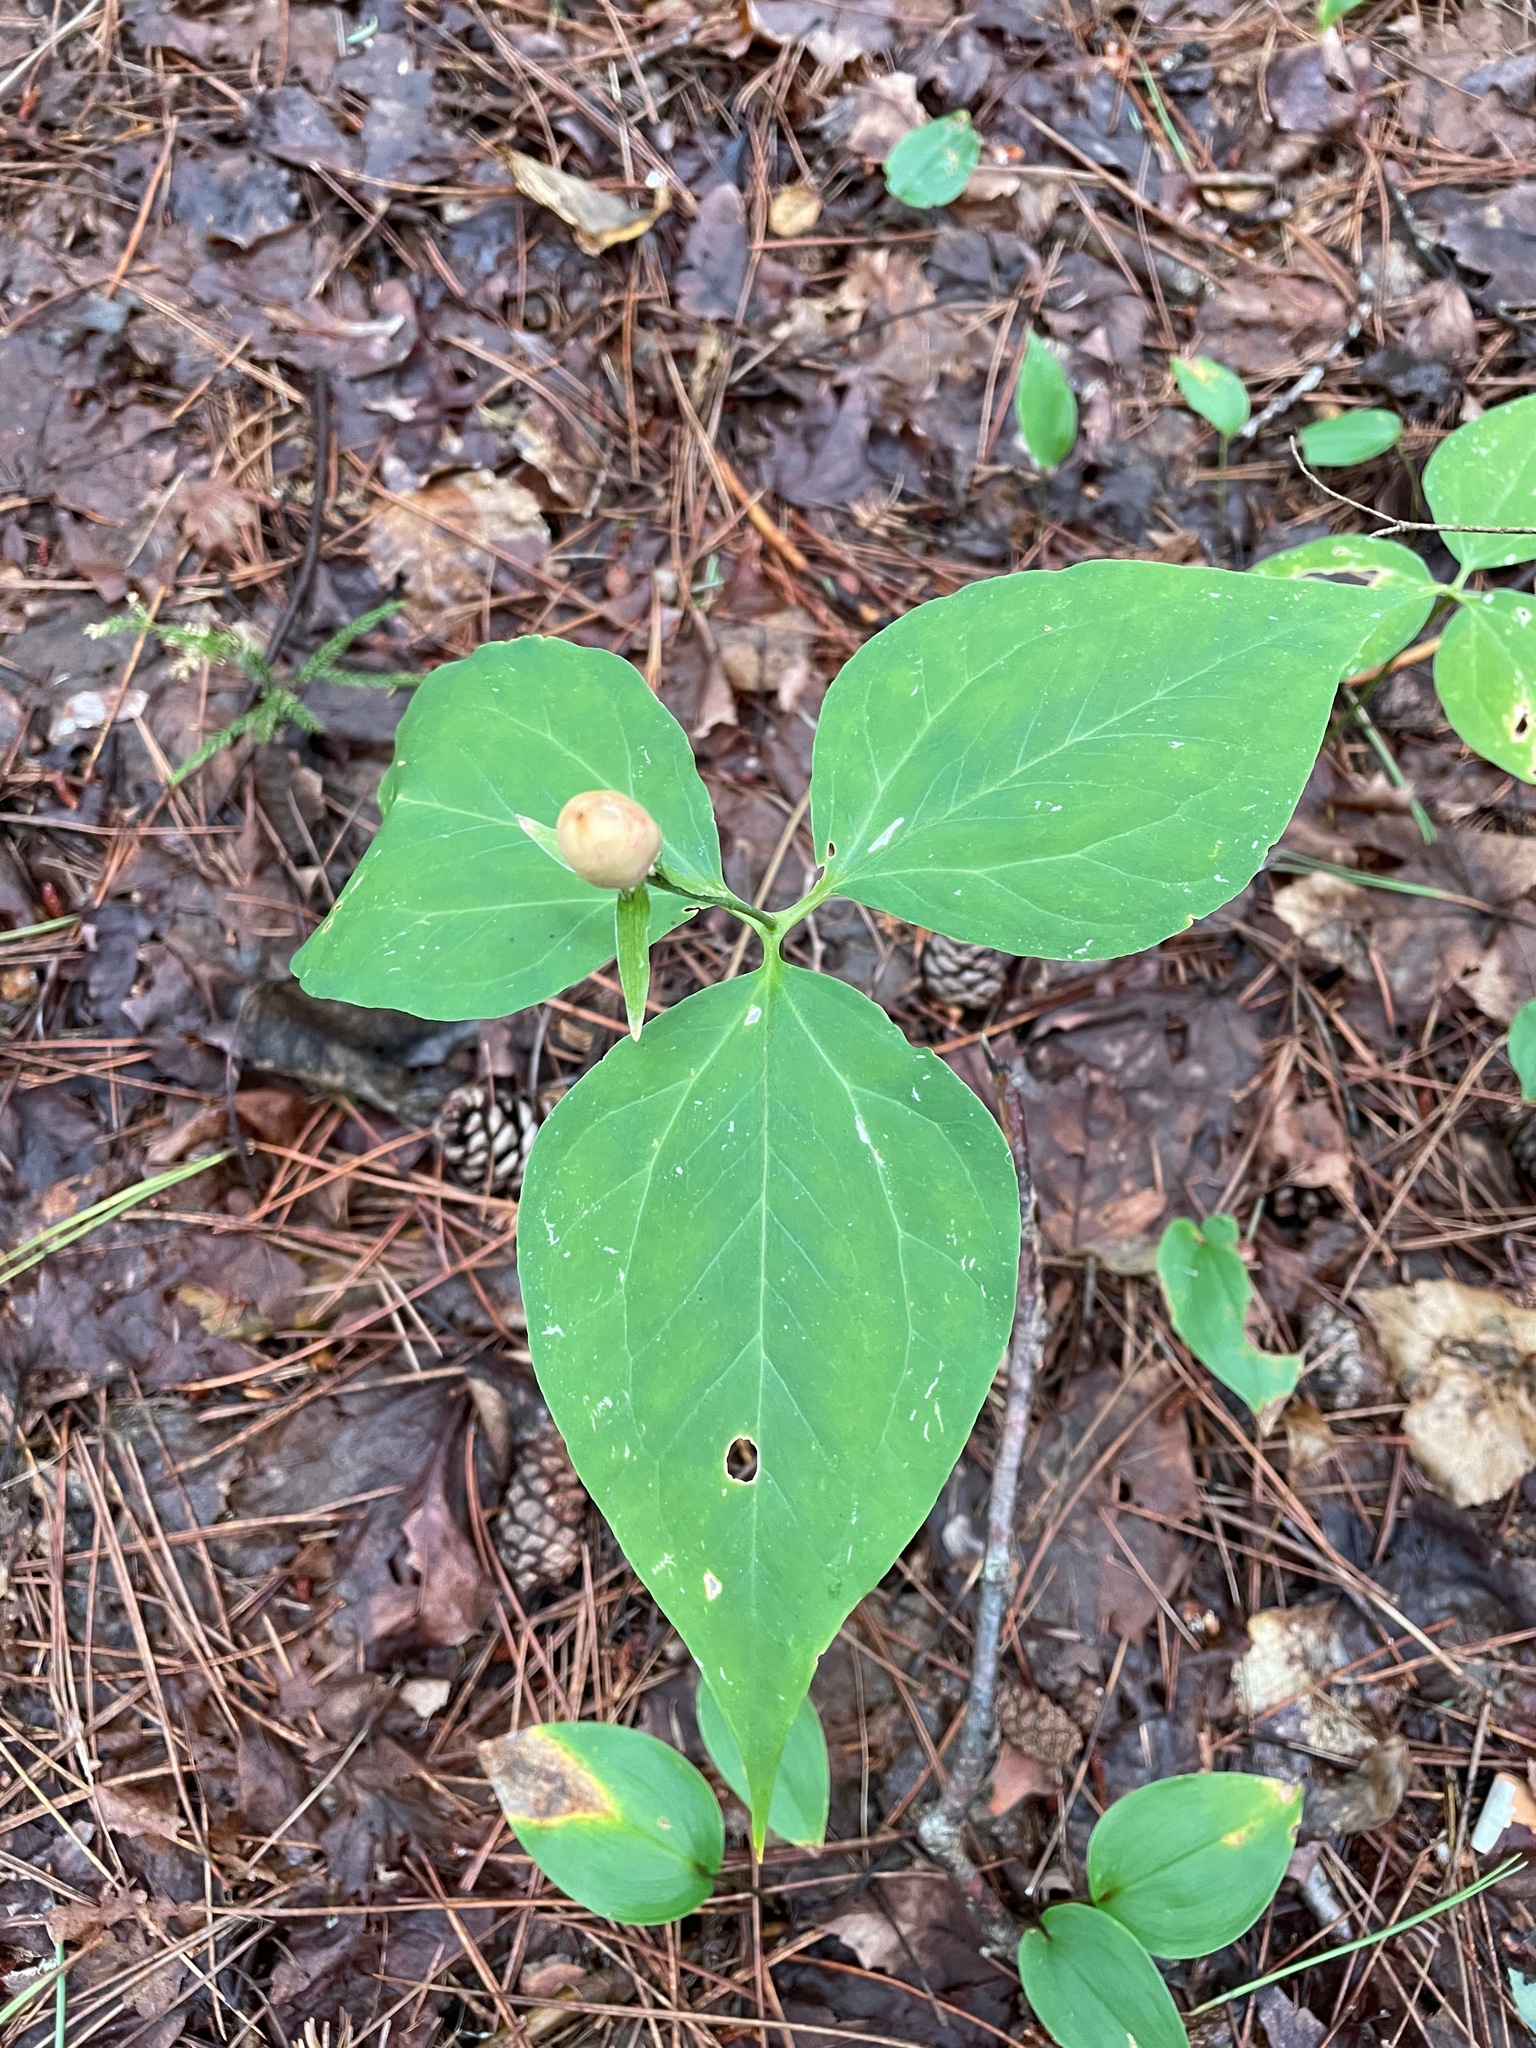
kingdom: Plantae
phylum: Tracheophyta
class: Liliopsida
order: Liliales
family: Melanthiaceae
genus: Trillium
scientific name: Trillium undulatum
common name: Paint trillium
